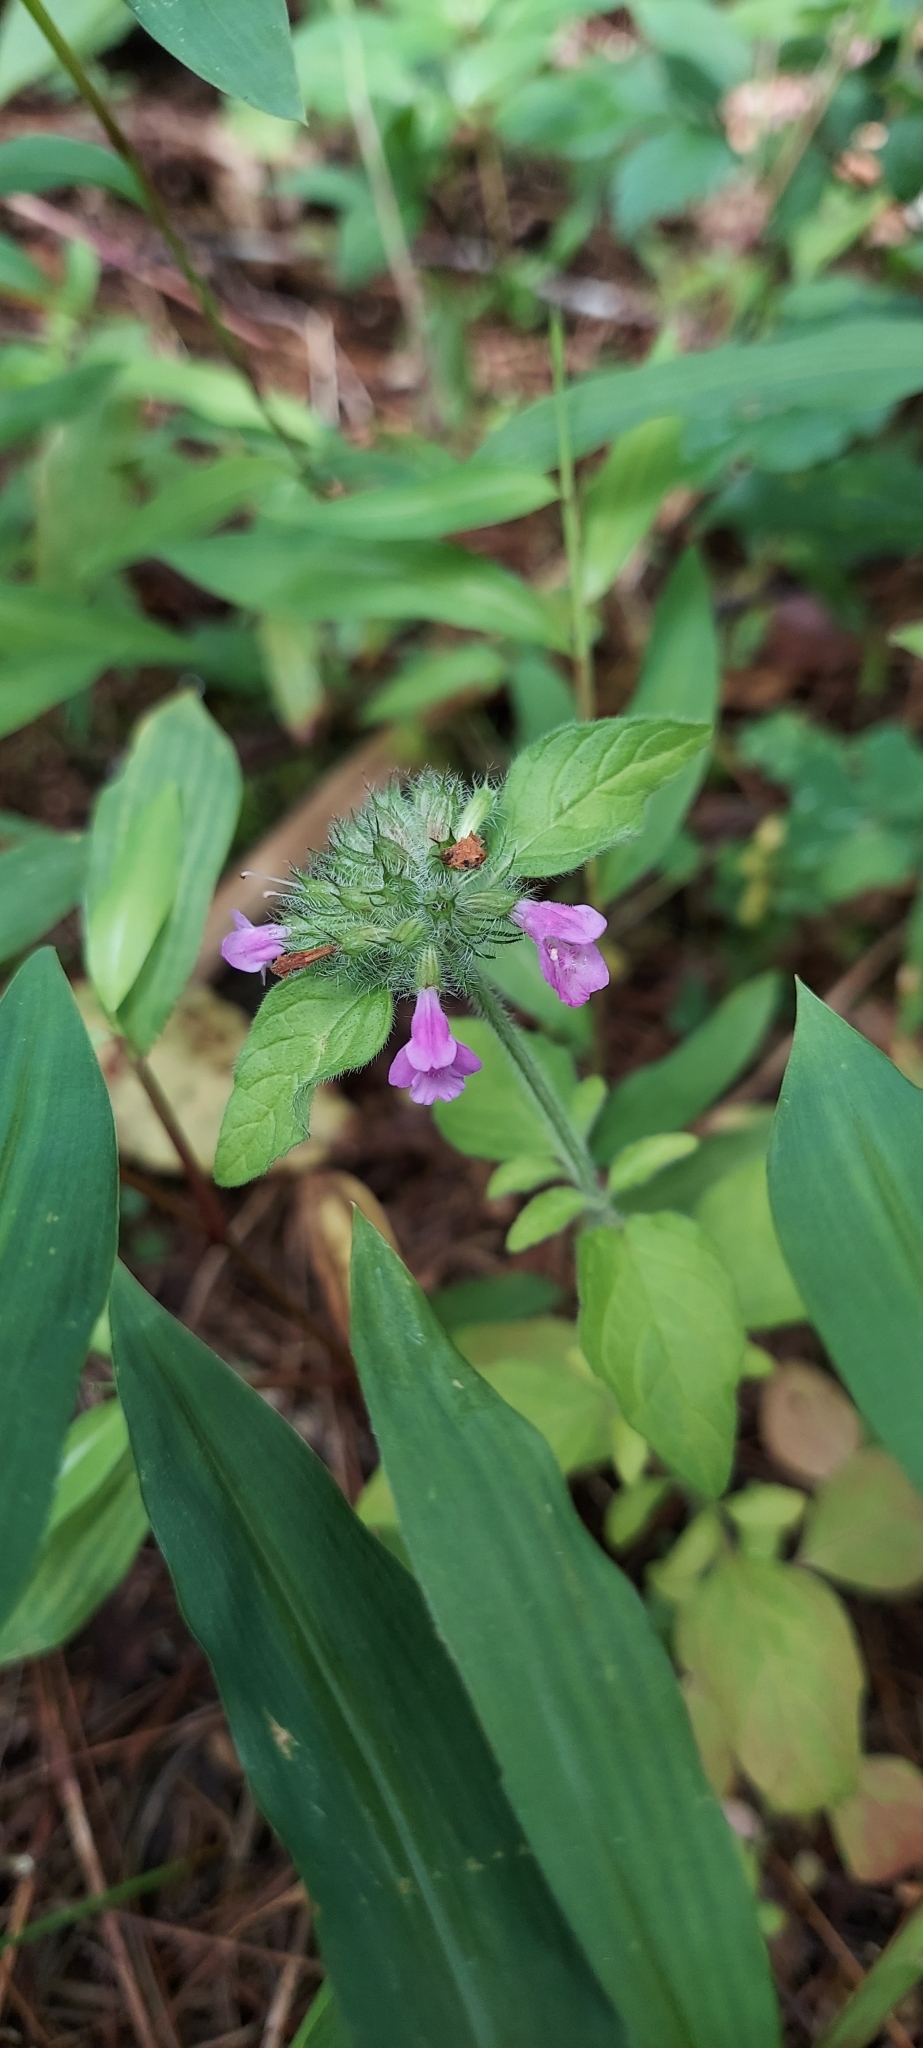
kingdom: Plantae
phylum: Tracheophyta
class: Magnoliopsida
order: Lamiales
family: Lamiaceae
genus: Clinopodium
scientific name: Clinopodium vulgare
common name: Wild basil
